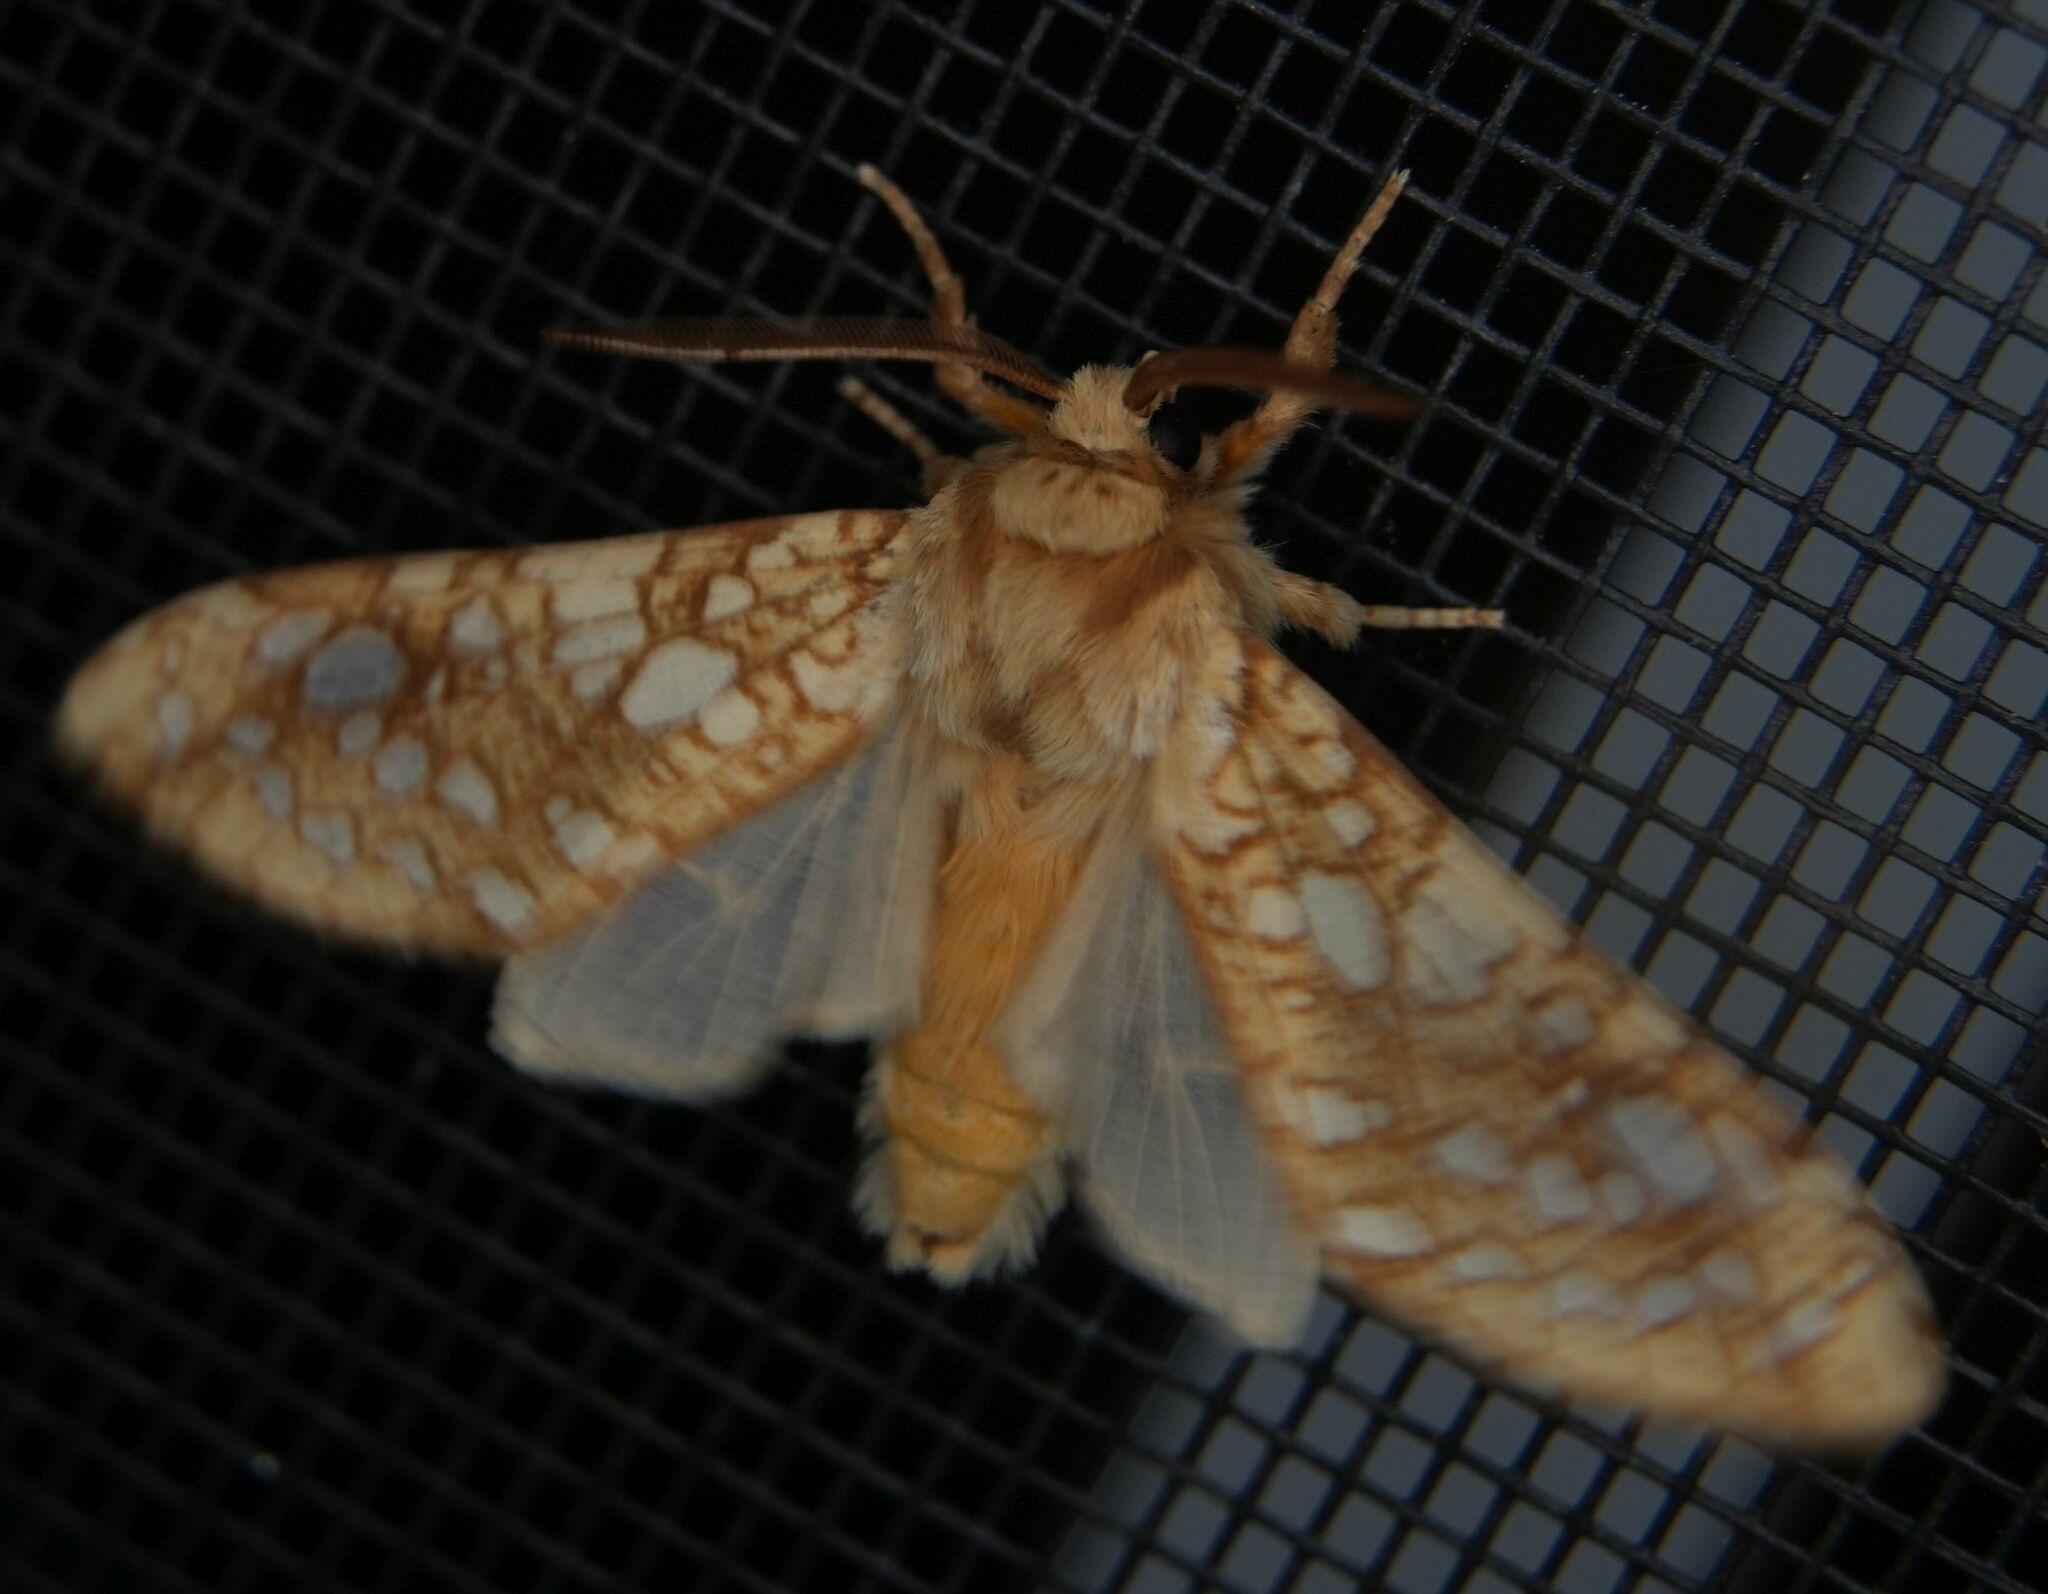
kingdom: Animalia
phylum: Arthropoda
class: Insecta
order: Lepidoptera
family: Erebidae
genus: Lophocampa
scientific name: Lophocampa caryae
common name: Hickory tussock moth
